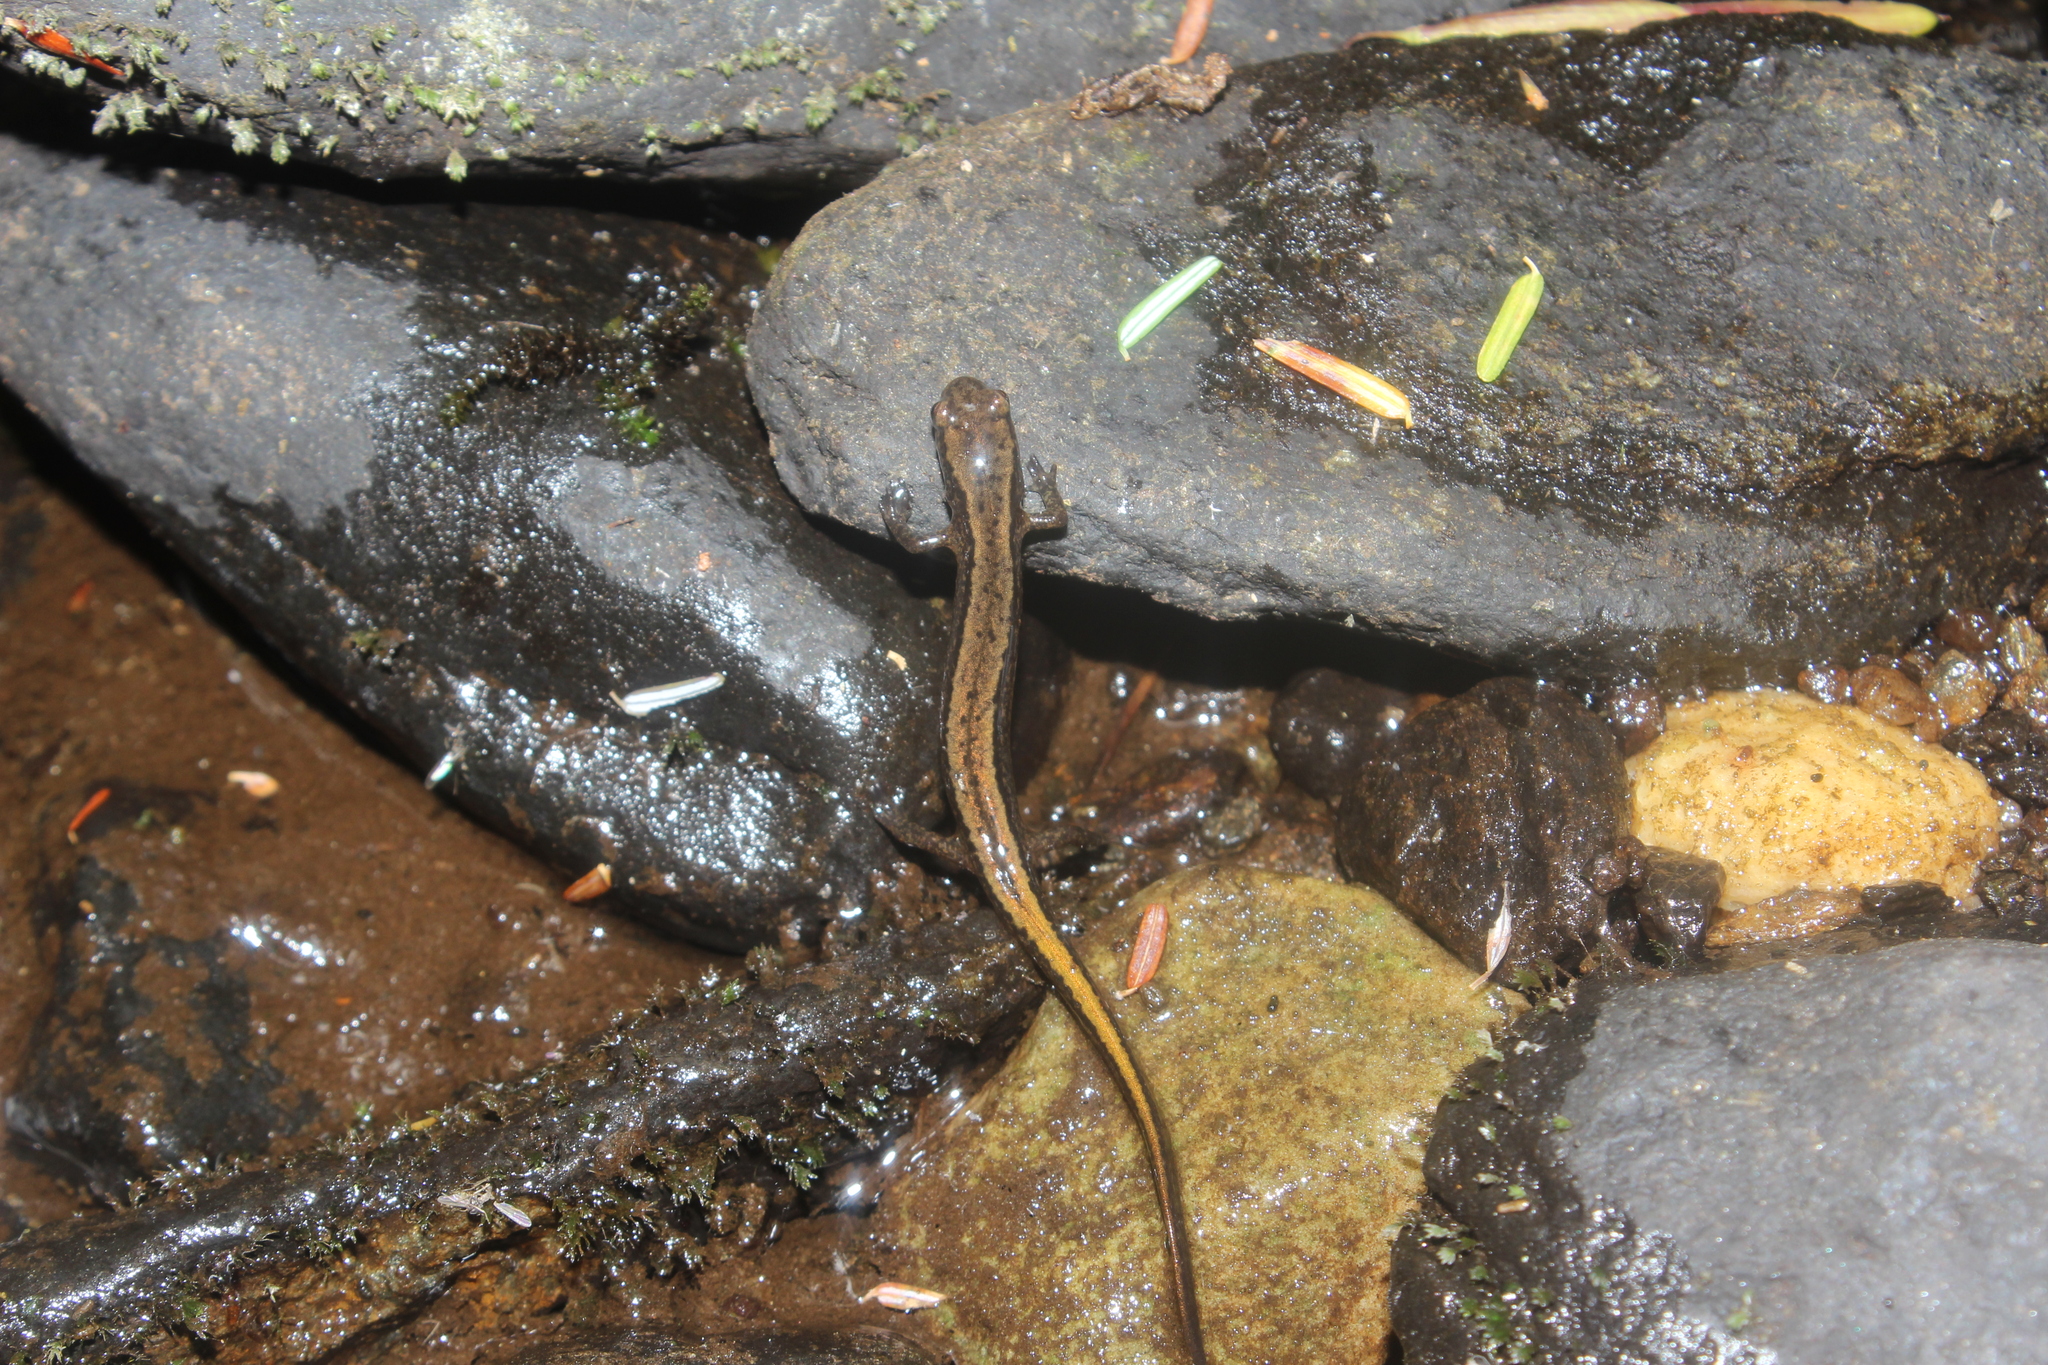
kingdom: Animalia
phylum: Chordata
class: Amphibia
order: Caudata
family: Plethodontidae
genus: Eurycea
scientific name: Eurycea bislineata
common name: Northern two-lined salamander
